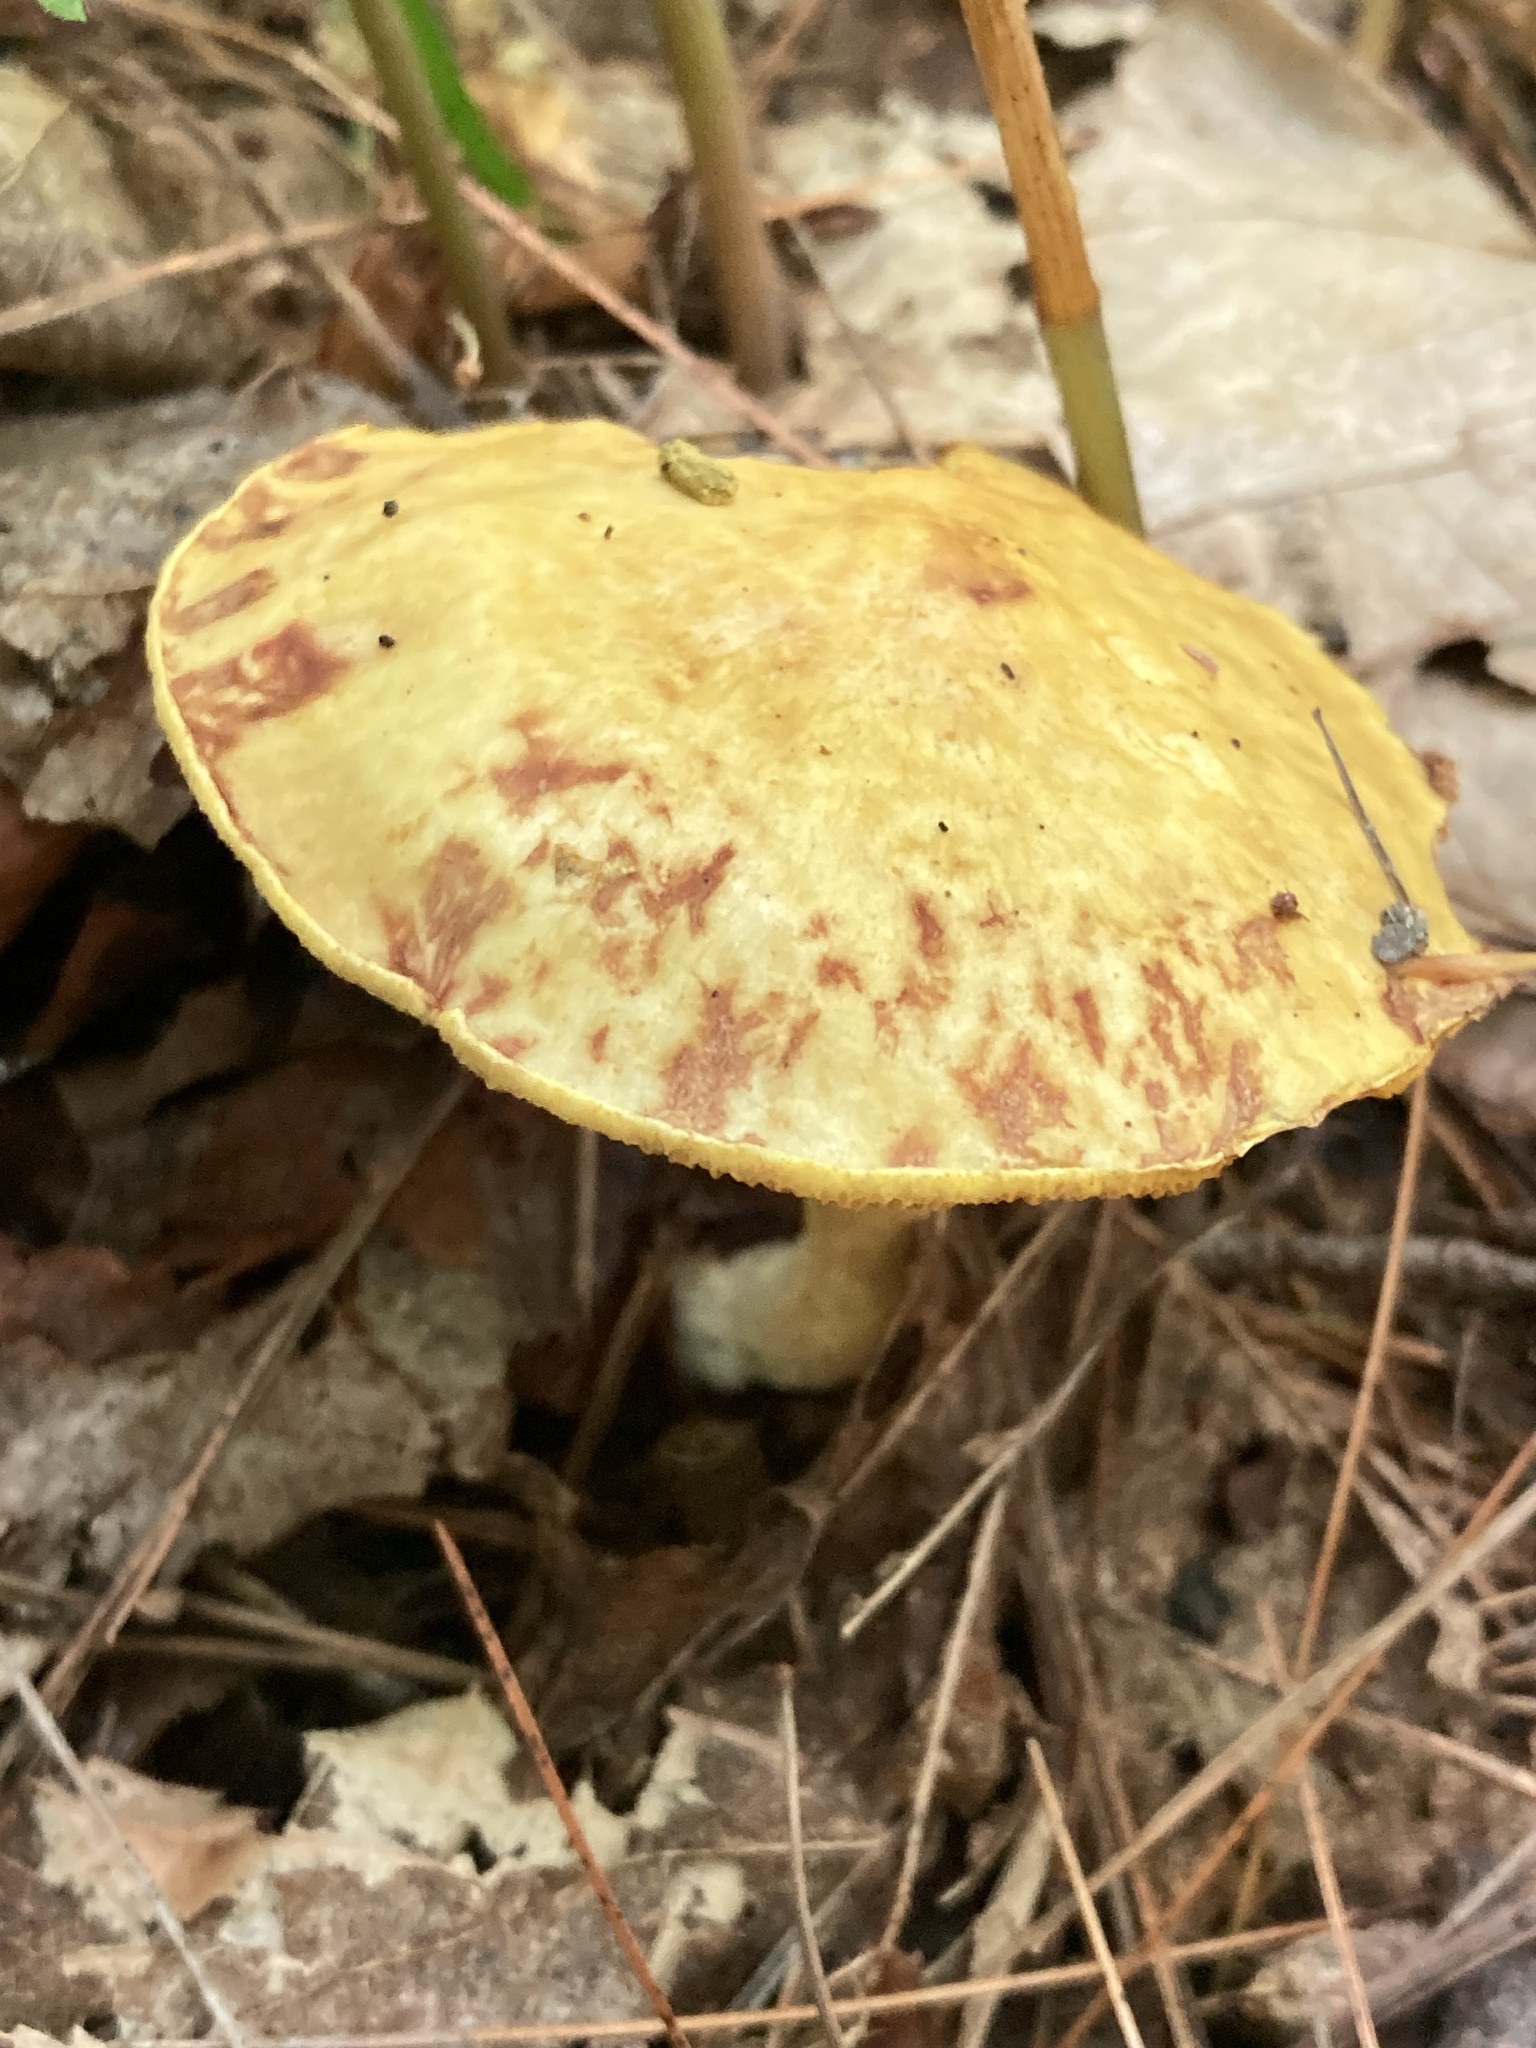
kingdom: Fungi
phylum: Basidiomycota
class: Agaricomycetes
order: Boletales
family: Suillaceae
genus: Suillus
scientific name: Suillus americanus
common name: Chicken fat mushroom
